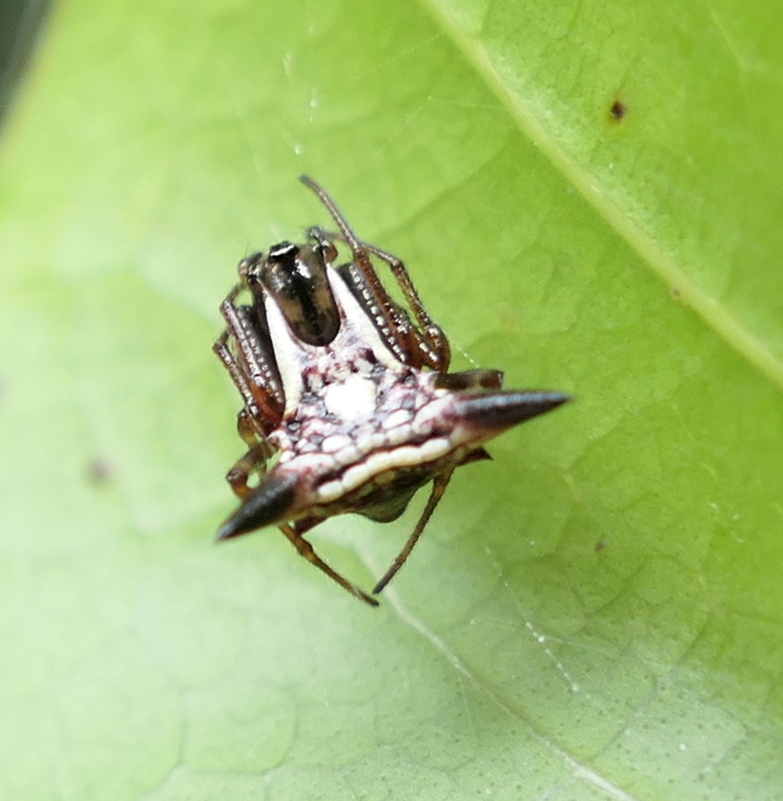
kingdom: Animalia
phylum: Arthropoda
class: Arachnida
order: Araneae
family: Araneidae
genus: Micrathena
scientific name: Micrathena evansi
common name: Orb weavers
